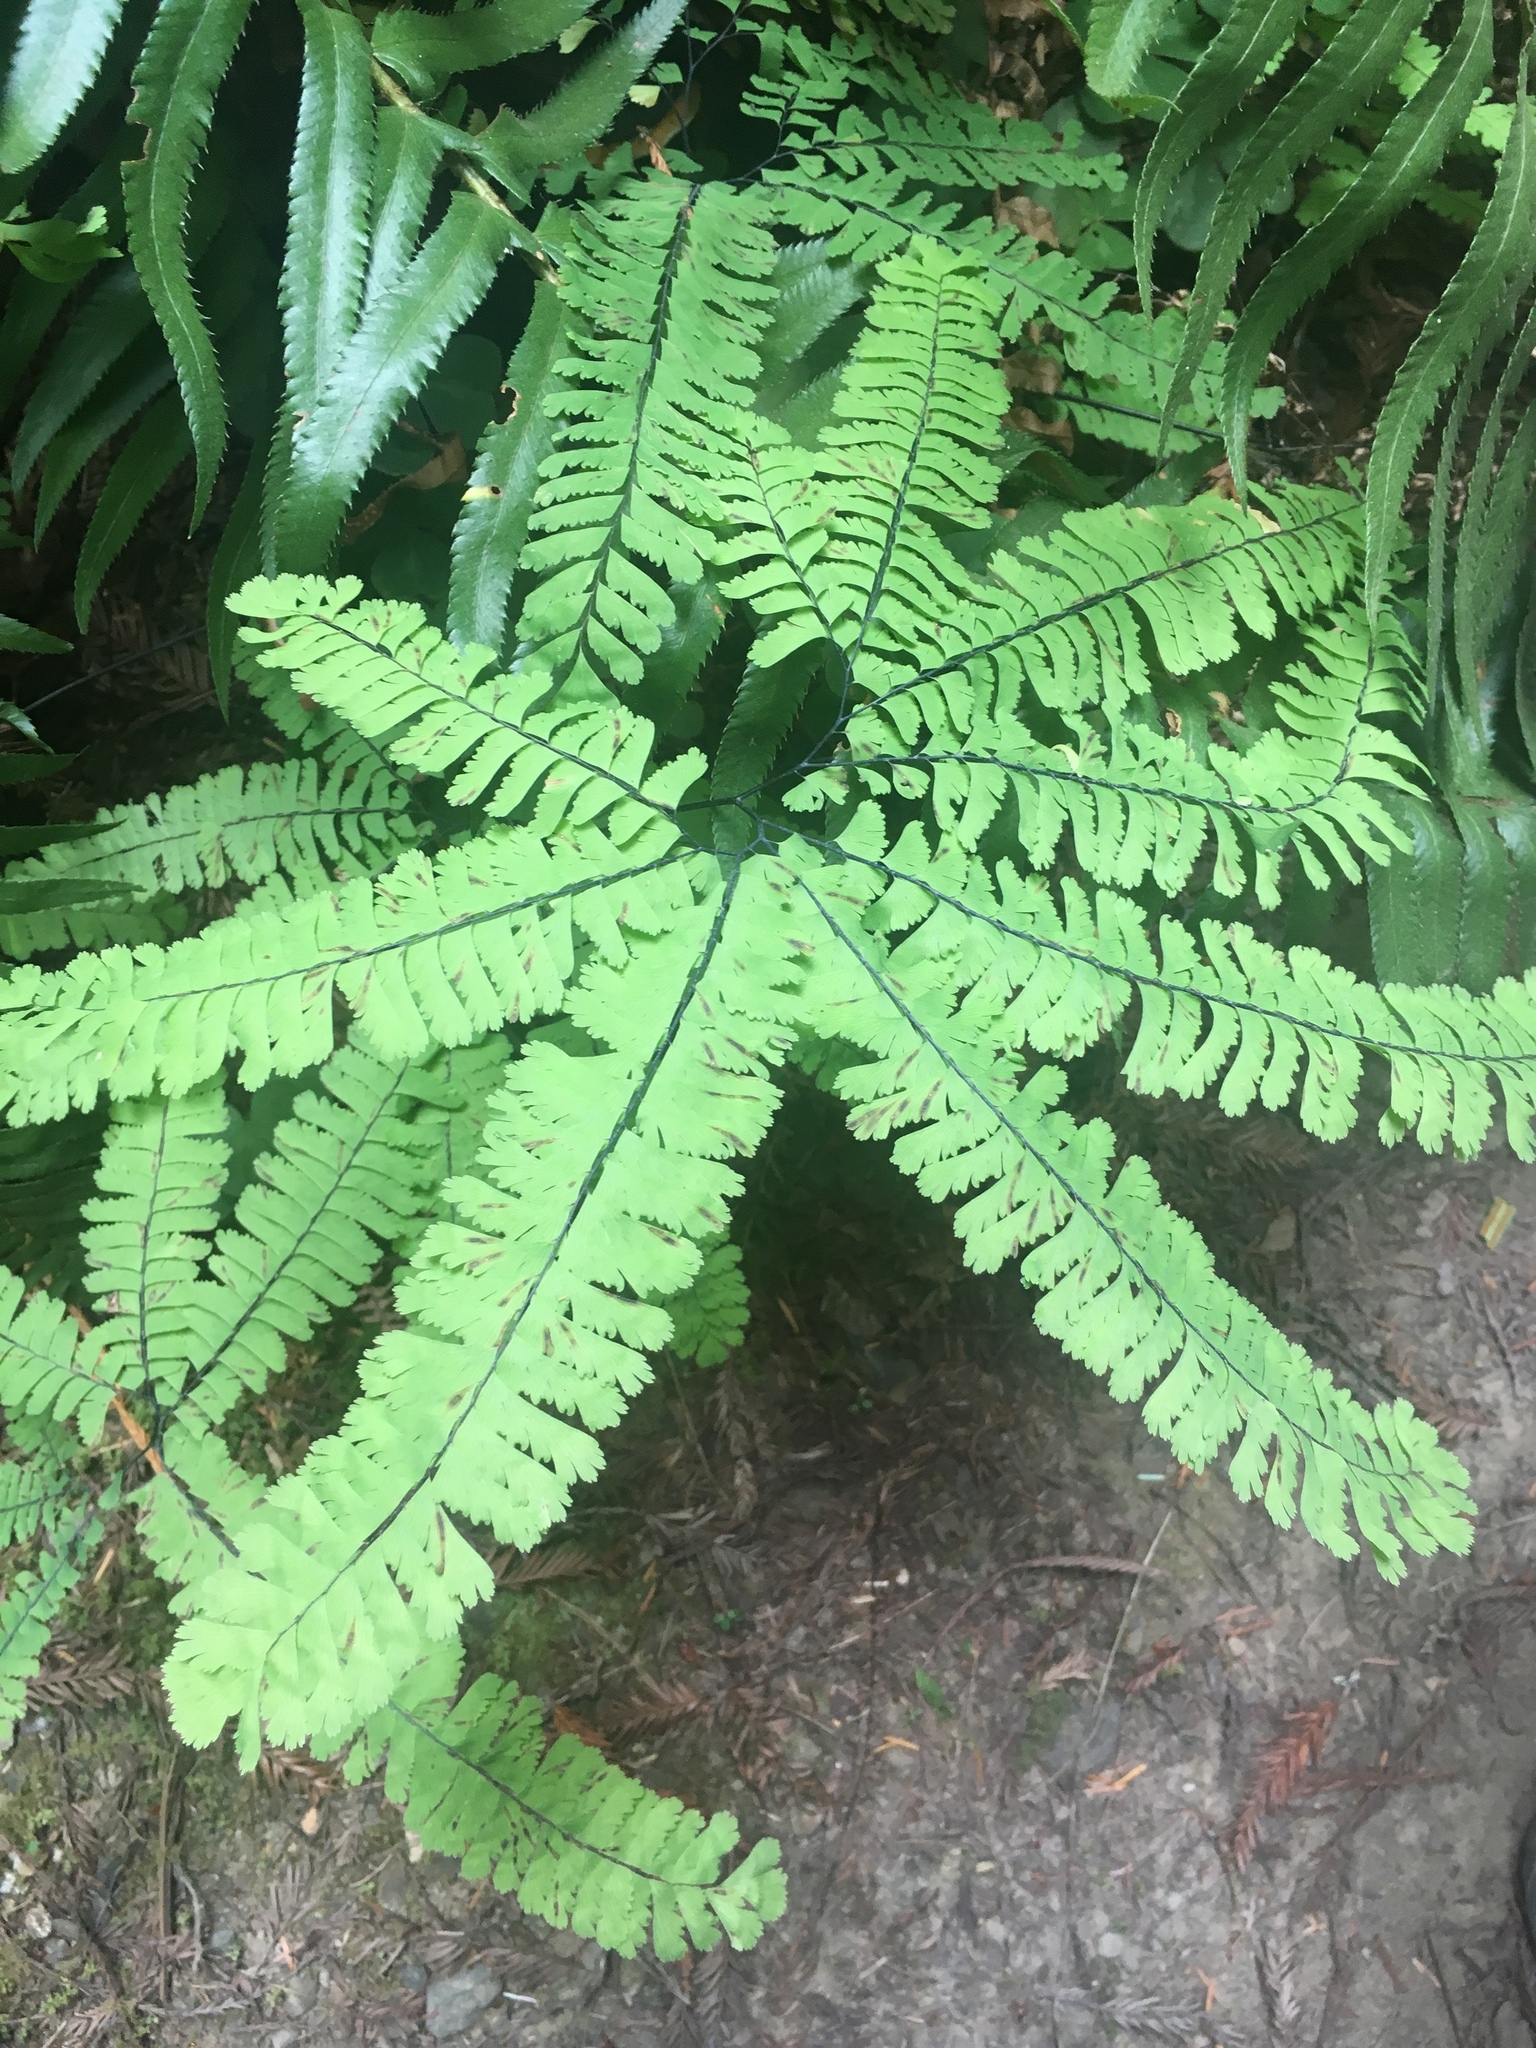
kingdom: Plantae
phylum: Tracheophyta
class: Polypodiopsida
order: Polypodiales
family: Pteridaceae
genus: Adiantum
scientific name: Adiantum aleuticum
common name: Aleutian maidenhair fern
